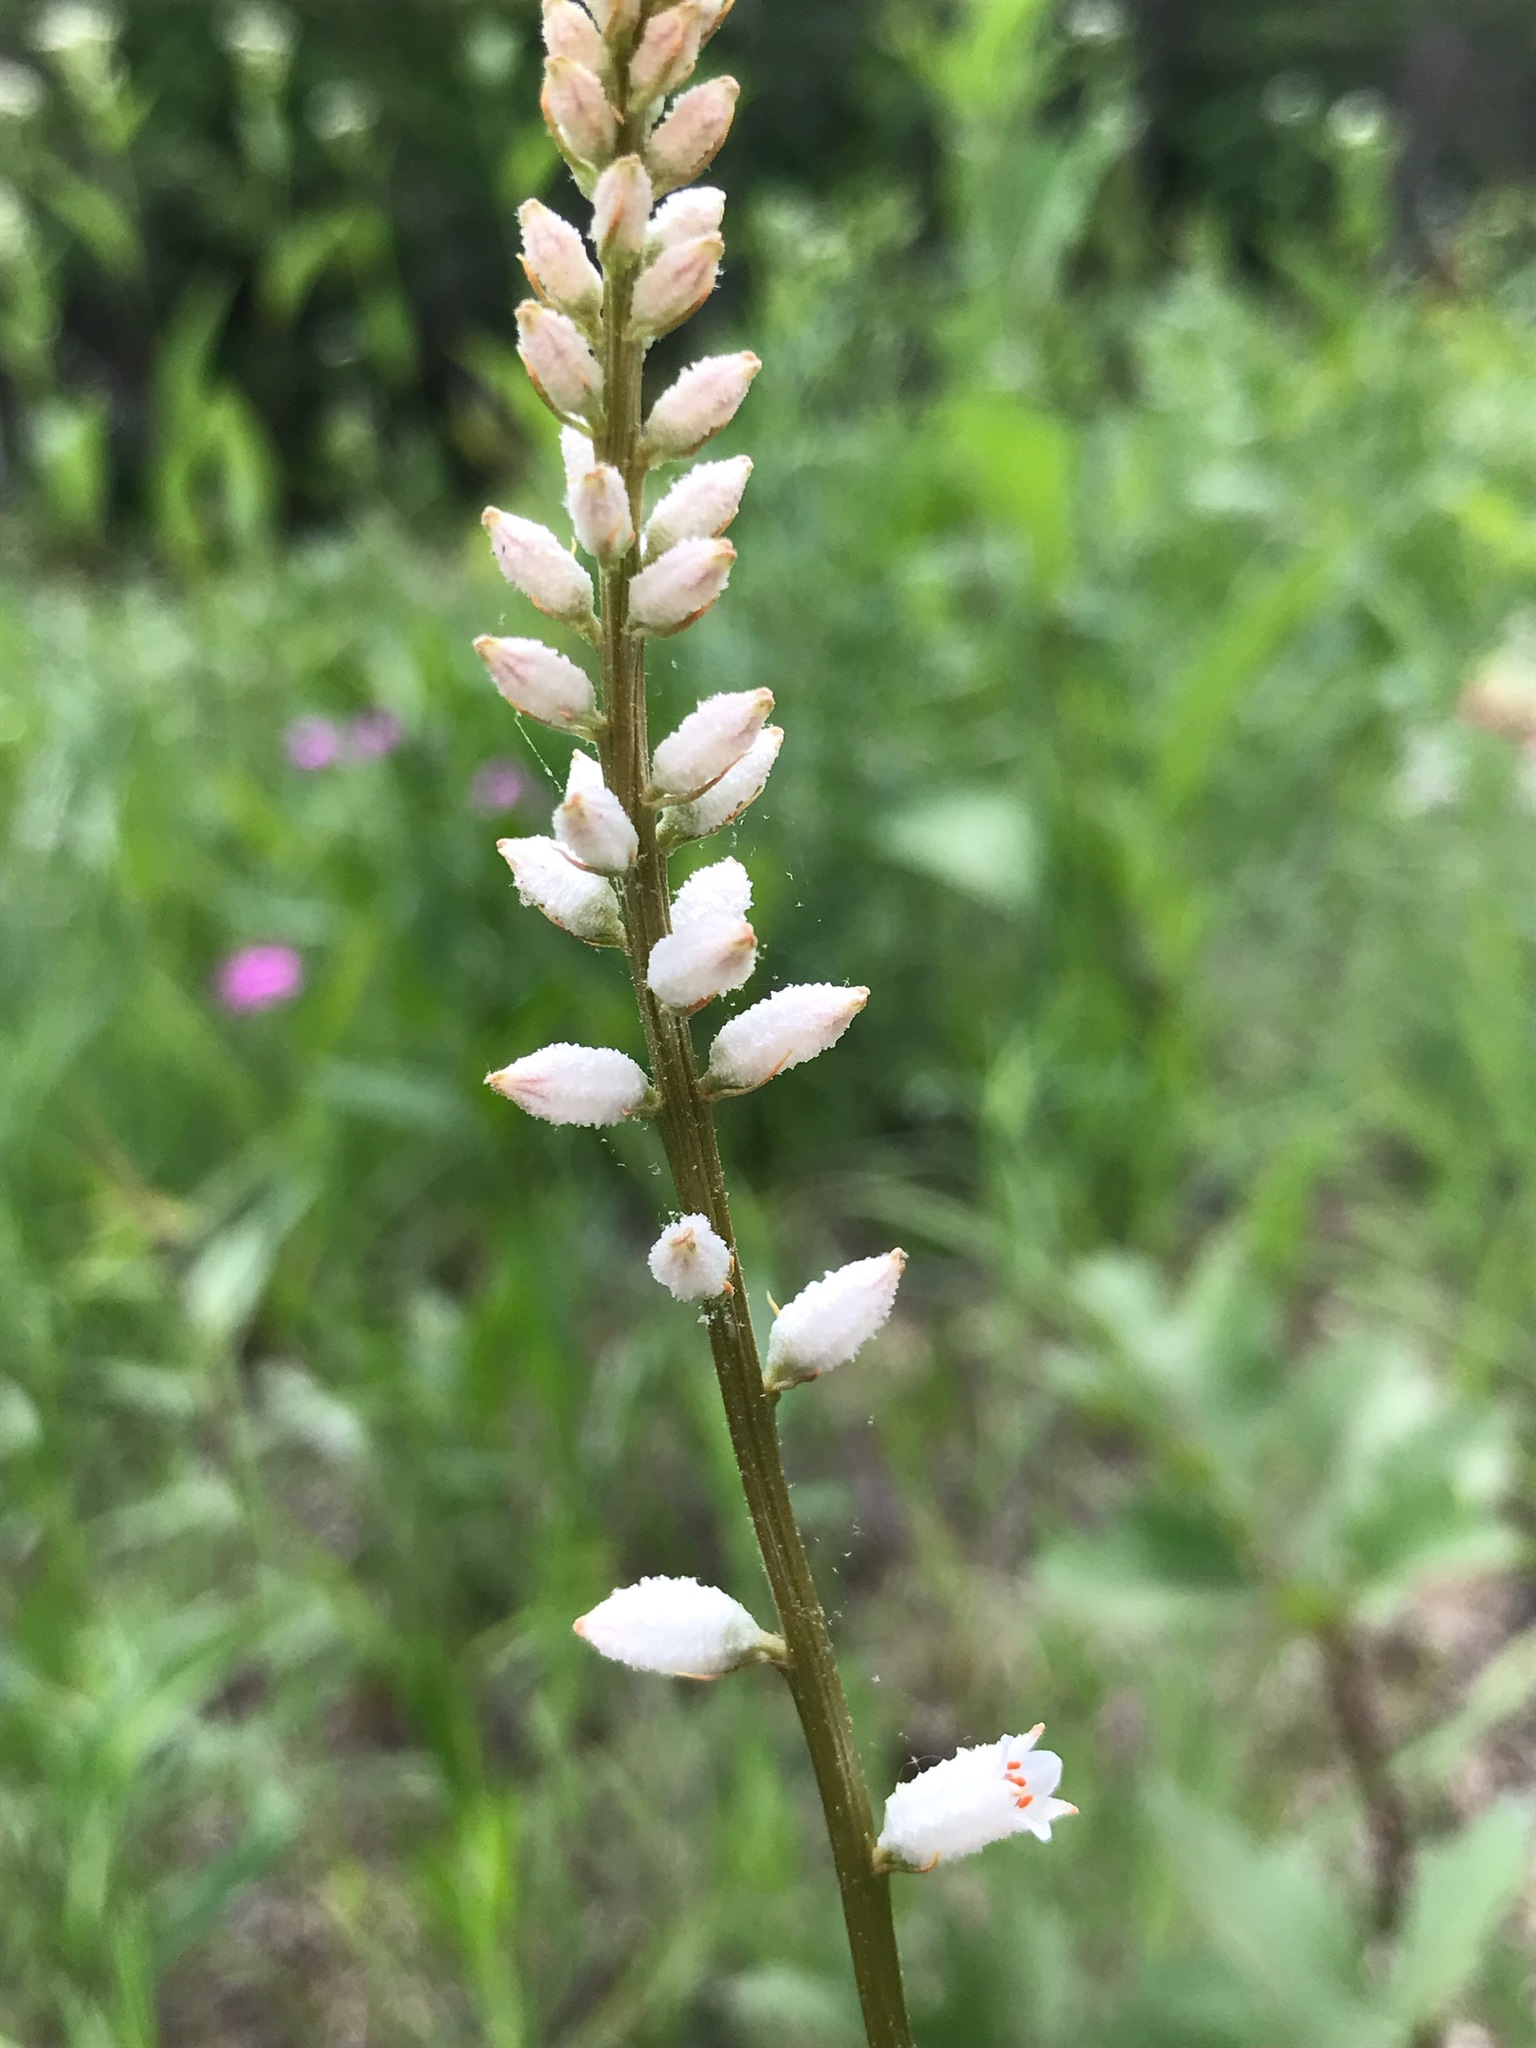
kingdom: Plantae
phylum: Tracheophyta
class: Liliopsida
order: Dioscoreales
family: Nartheciaceae
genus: Aletris
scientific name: Aletris farinosa
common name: Colicroot
